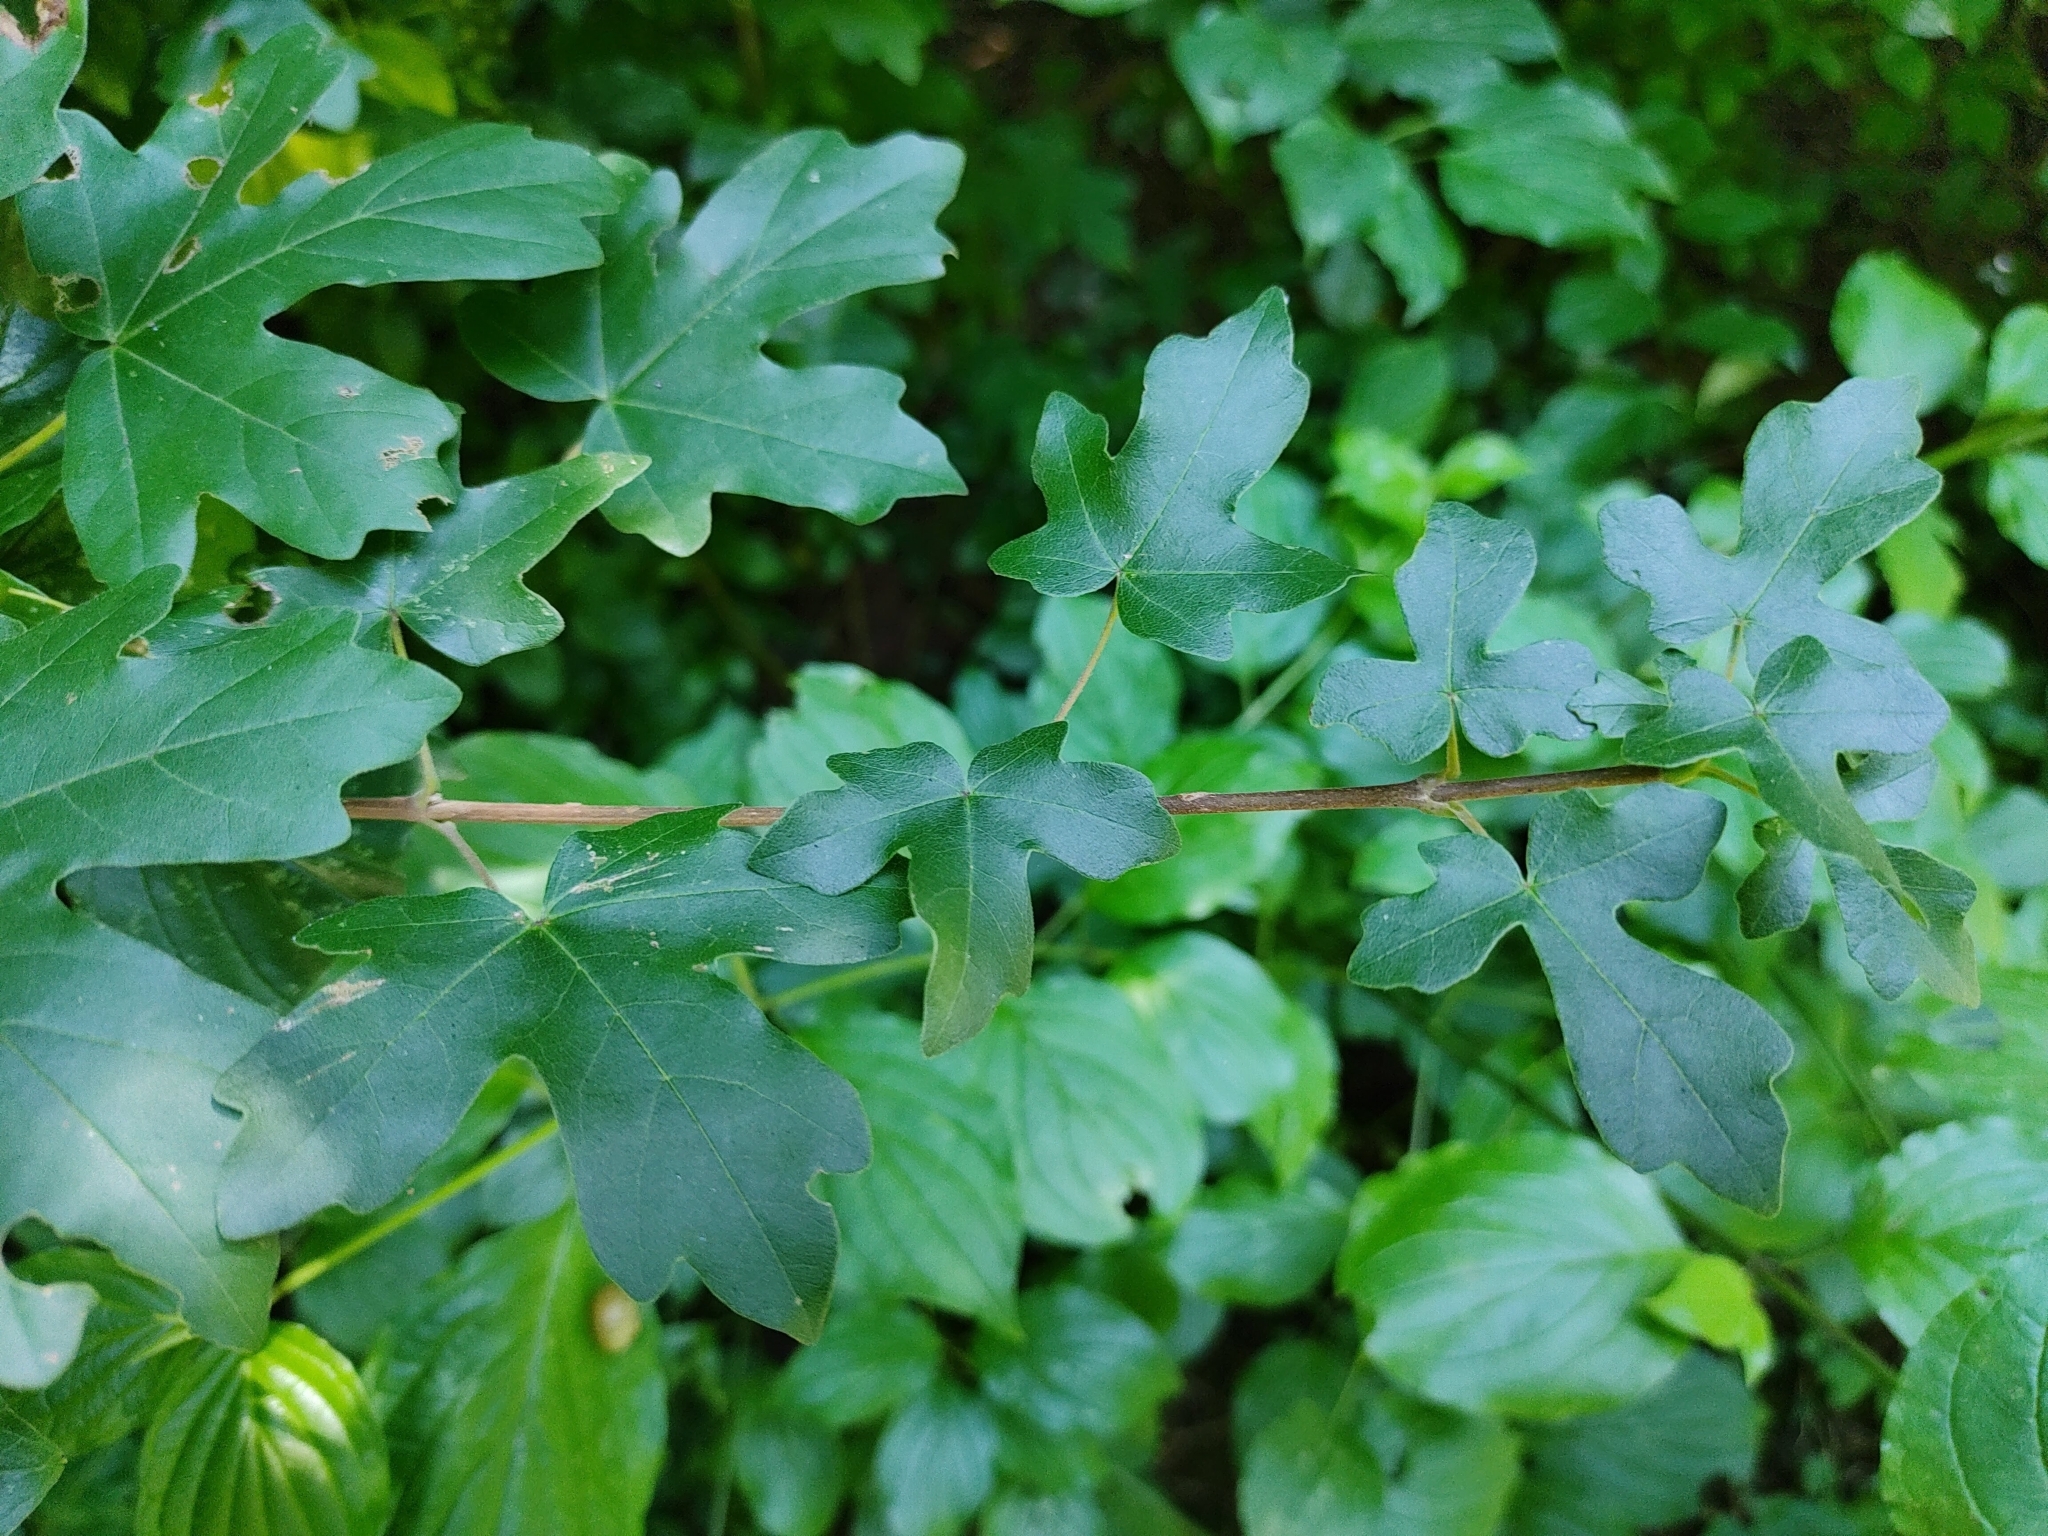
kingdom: Plantae
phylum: Tracheophyta
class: Magnoliopsida
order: Sapindales
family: Sapindaceae
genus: Acer
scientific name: Acer campestre
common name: Field maple
